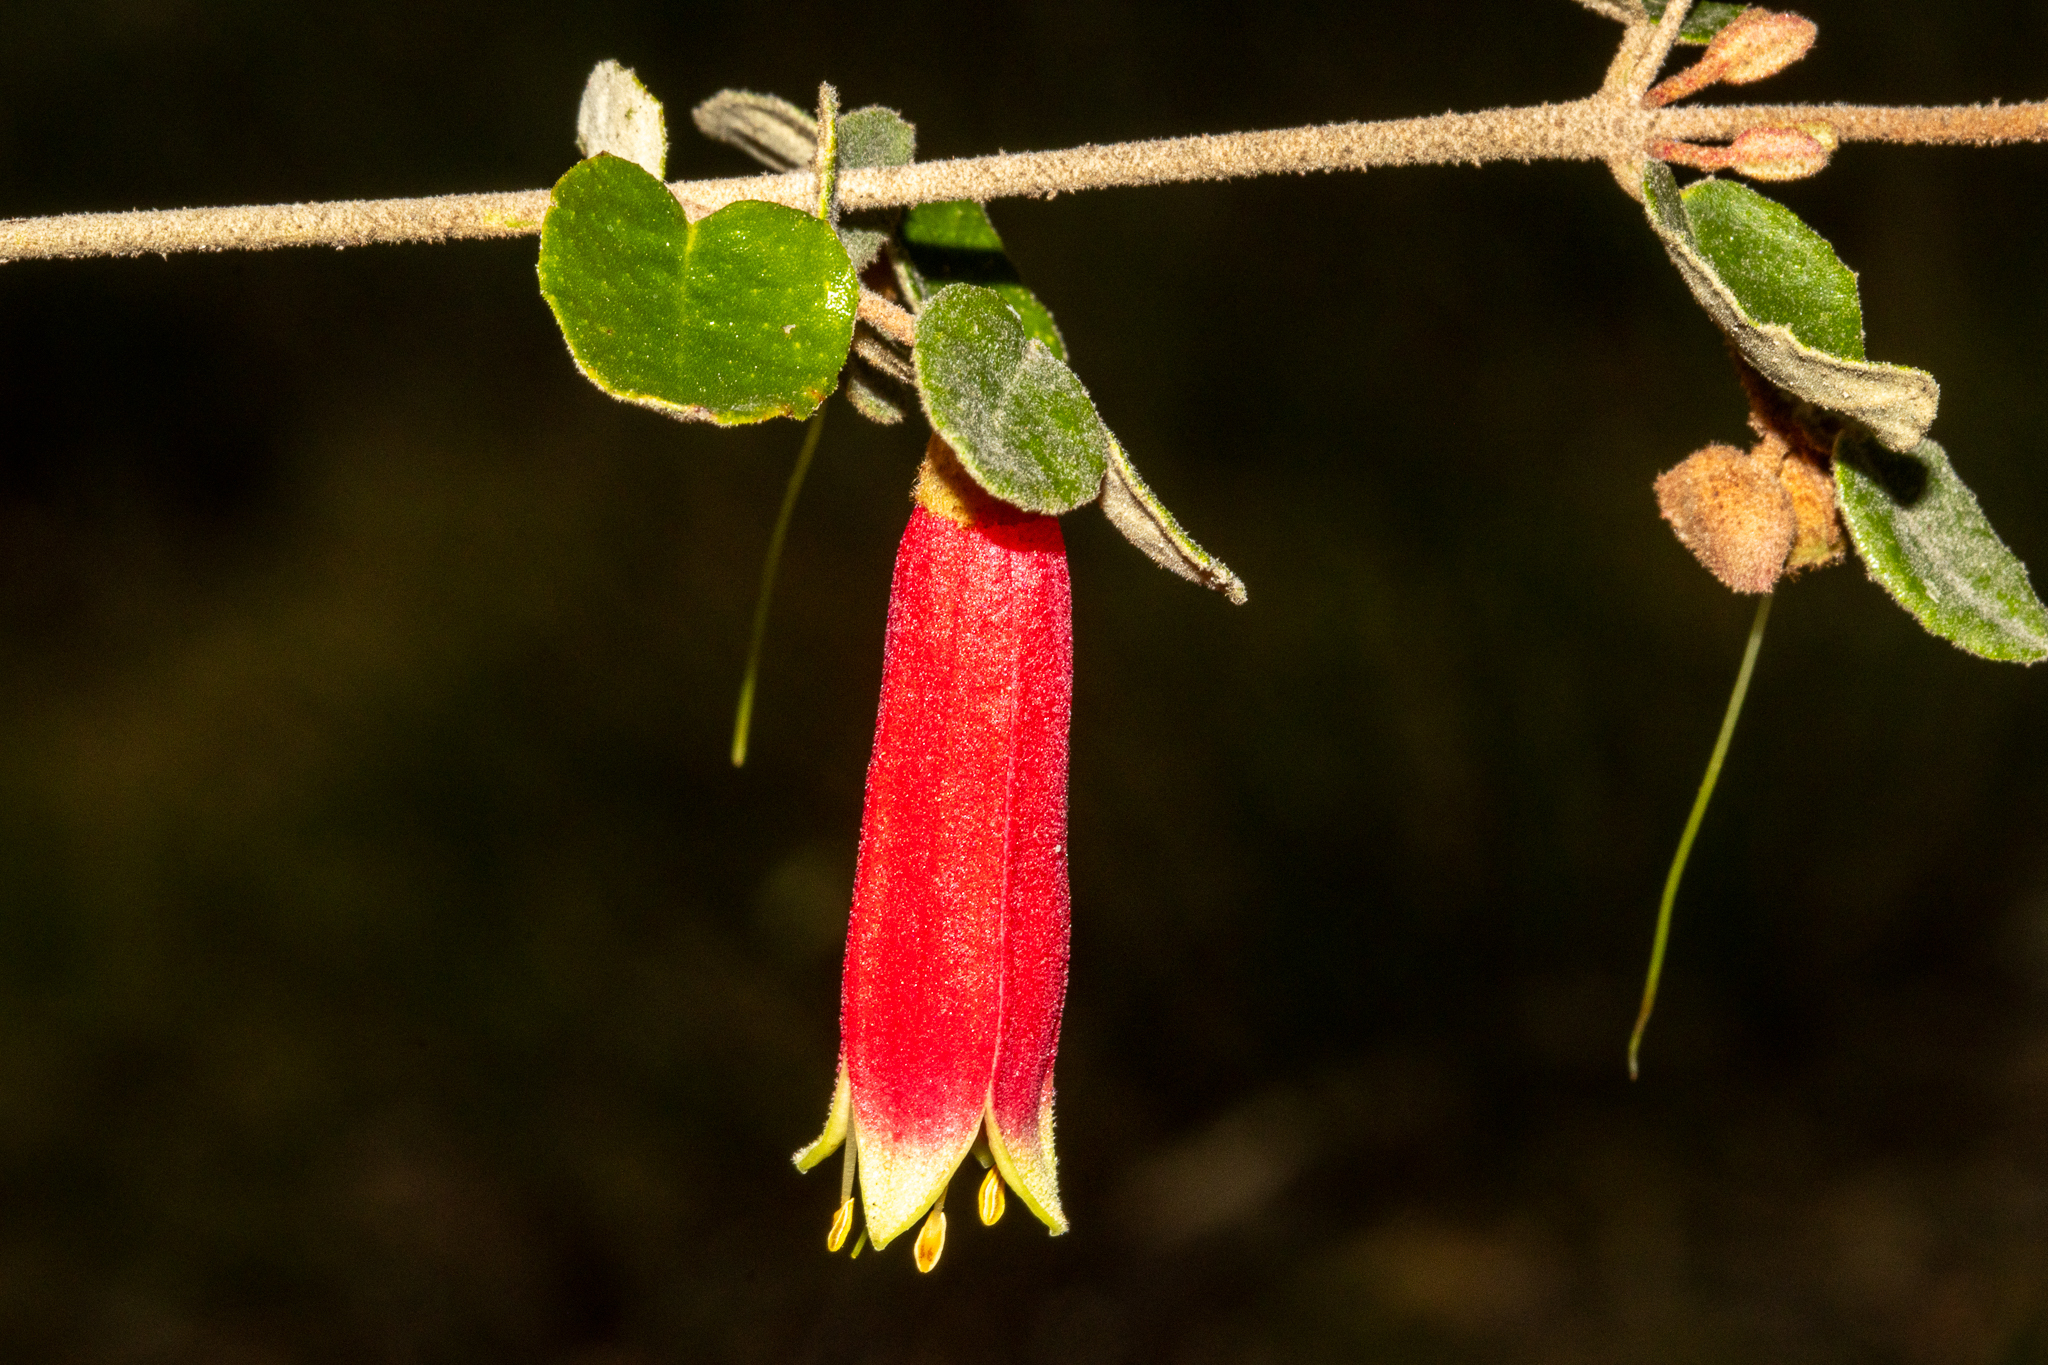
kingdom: Plantae
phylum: Tracheophyta
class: Magnoliopsida
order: Sapindales
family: Rutaceae
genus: Correa
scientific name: Correa reflexa
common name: Common correa
